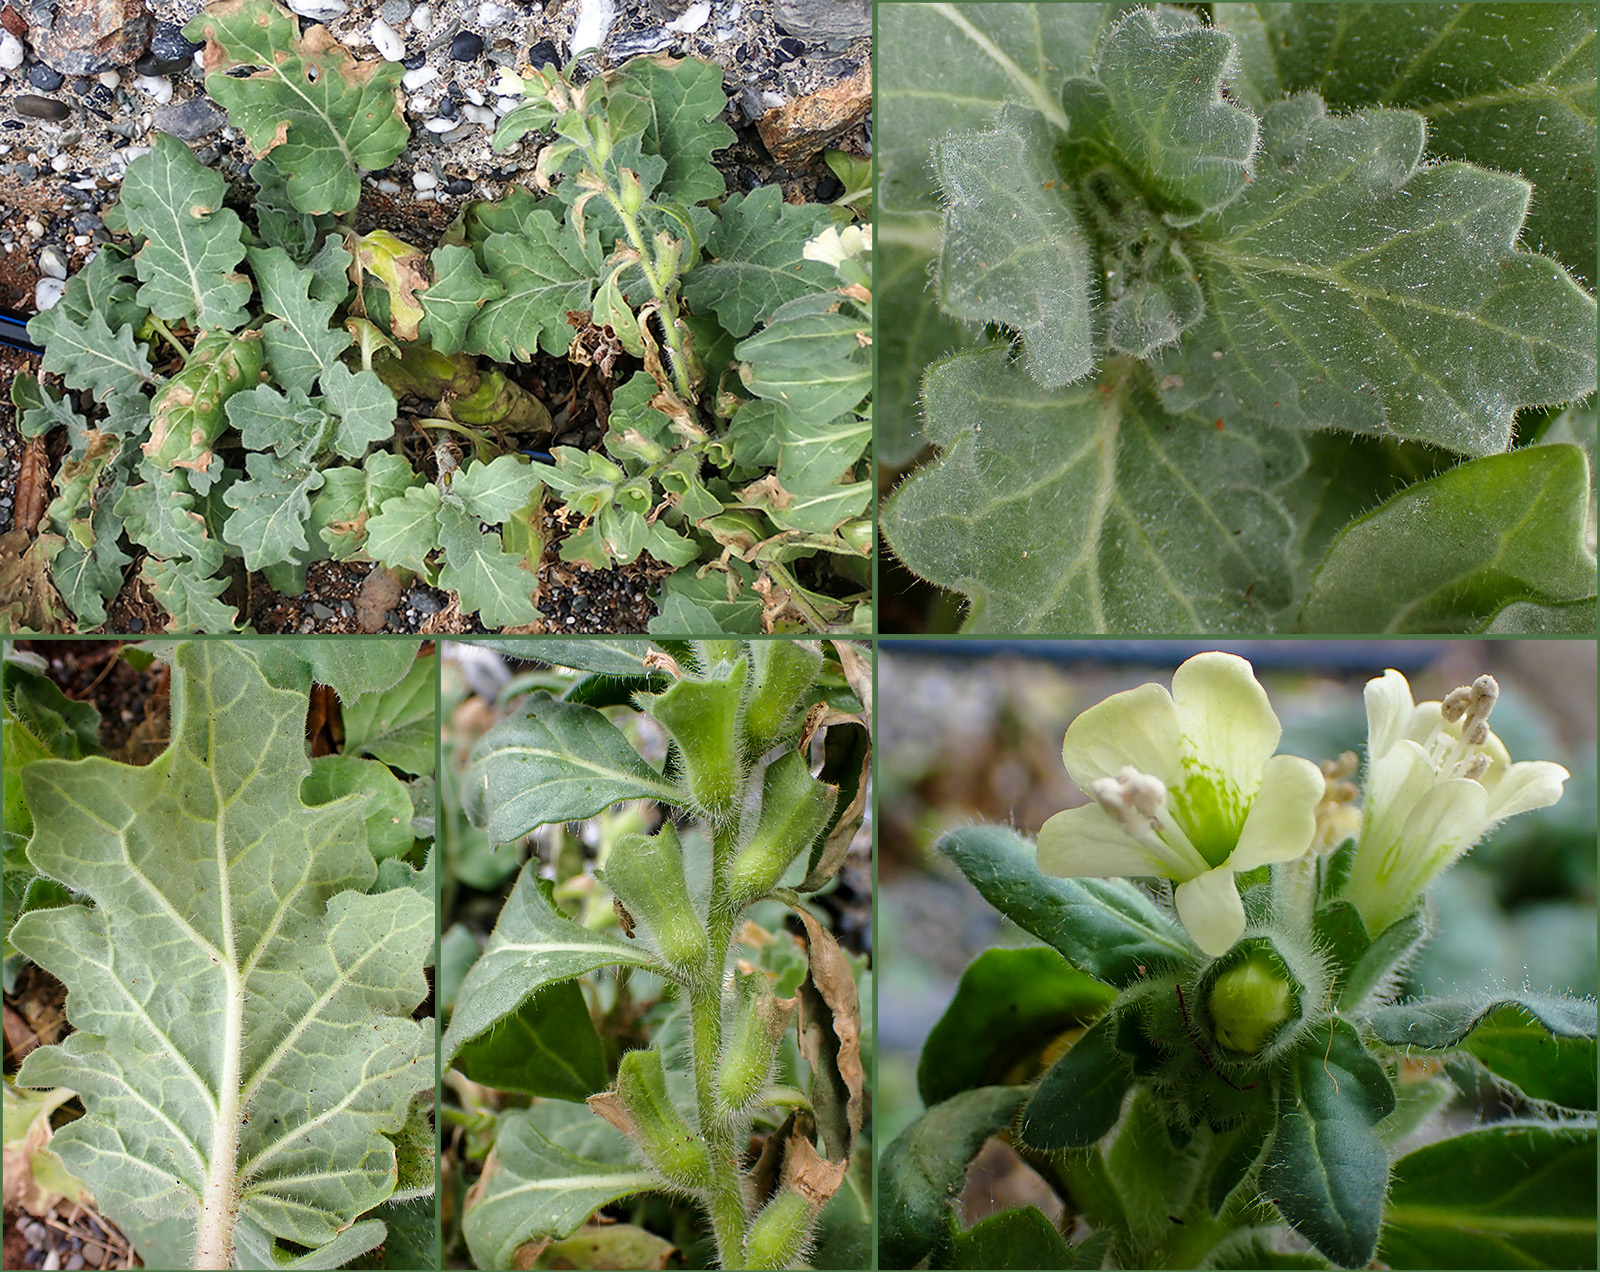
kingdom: Plantae
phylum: Tracheophyta
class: Magnoliopsida
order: Solanales
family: Solanaceae
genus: Hyoscyamus
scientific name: Hyoscyamus albus
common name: White henbane
